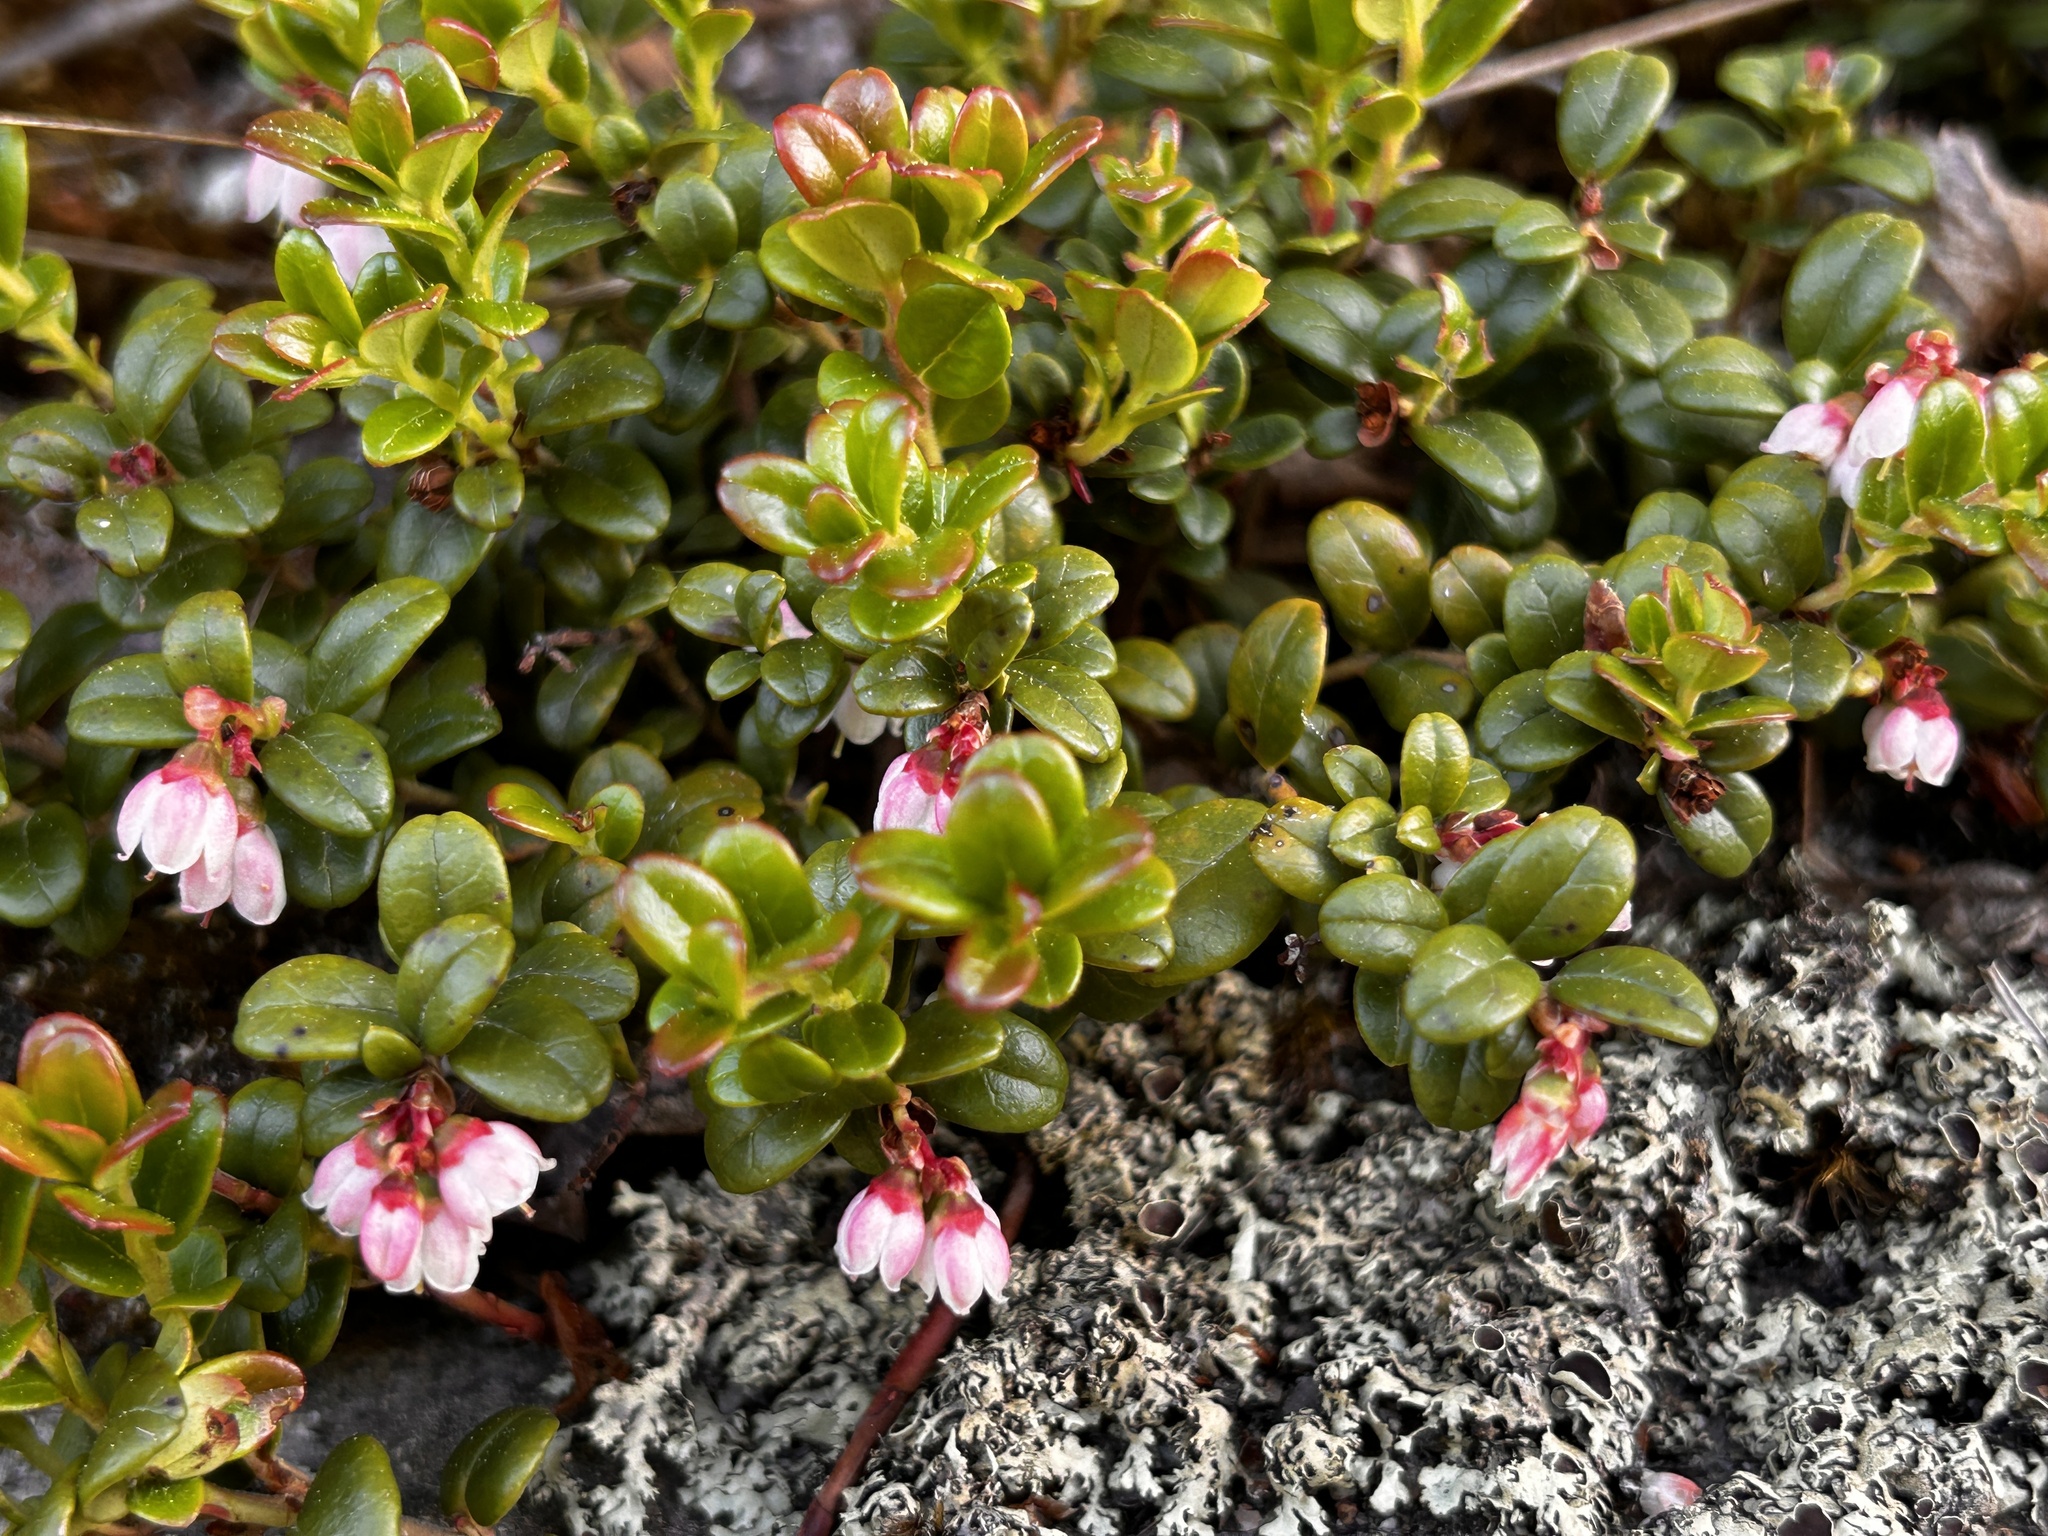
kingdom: Plantae
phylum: Tracheophyta
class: Magnoliopsida
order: Ericales
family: Ericaceae
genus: Vaccinium
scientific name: Vaccinium vitis-idaea
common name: Cowberry
